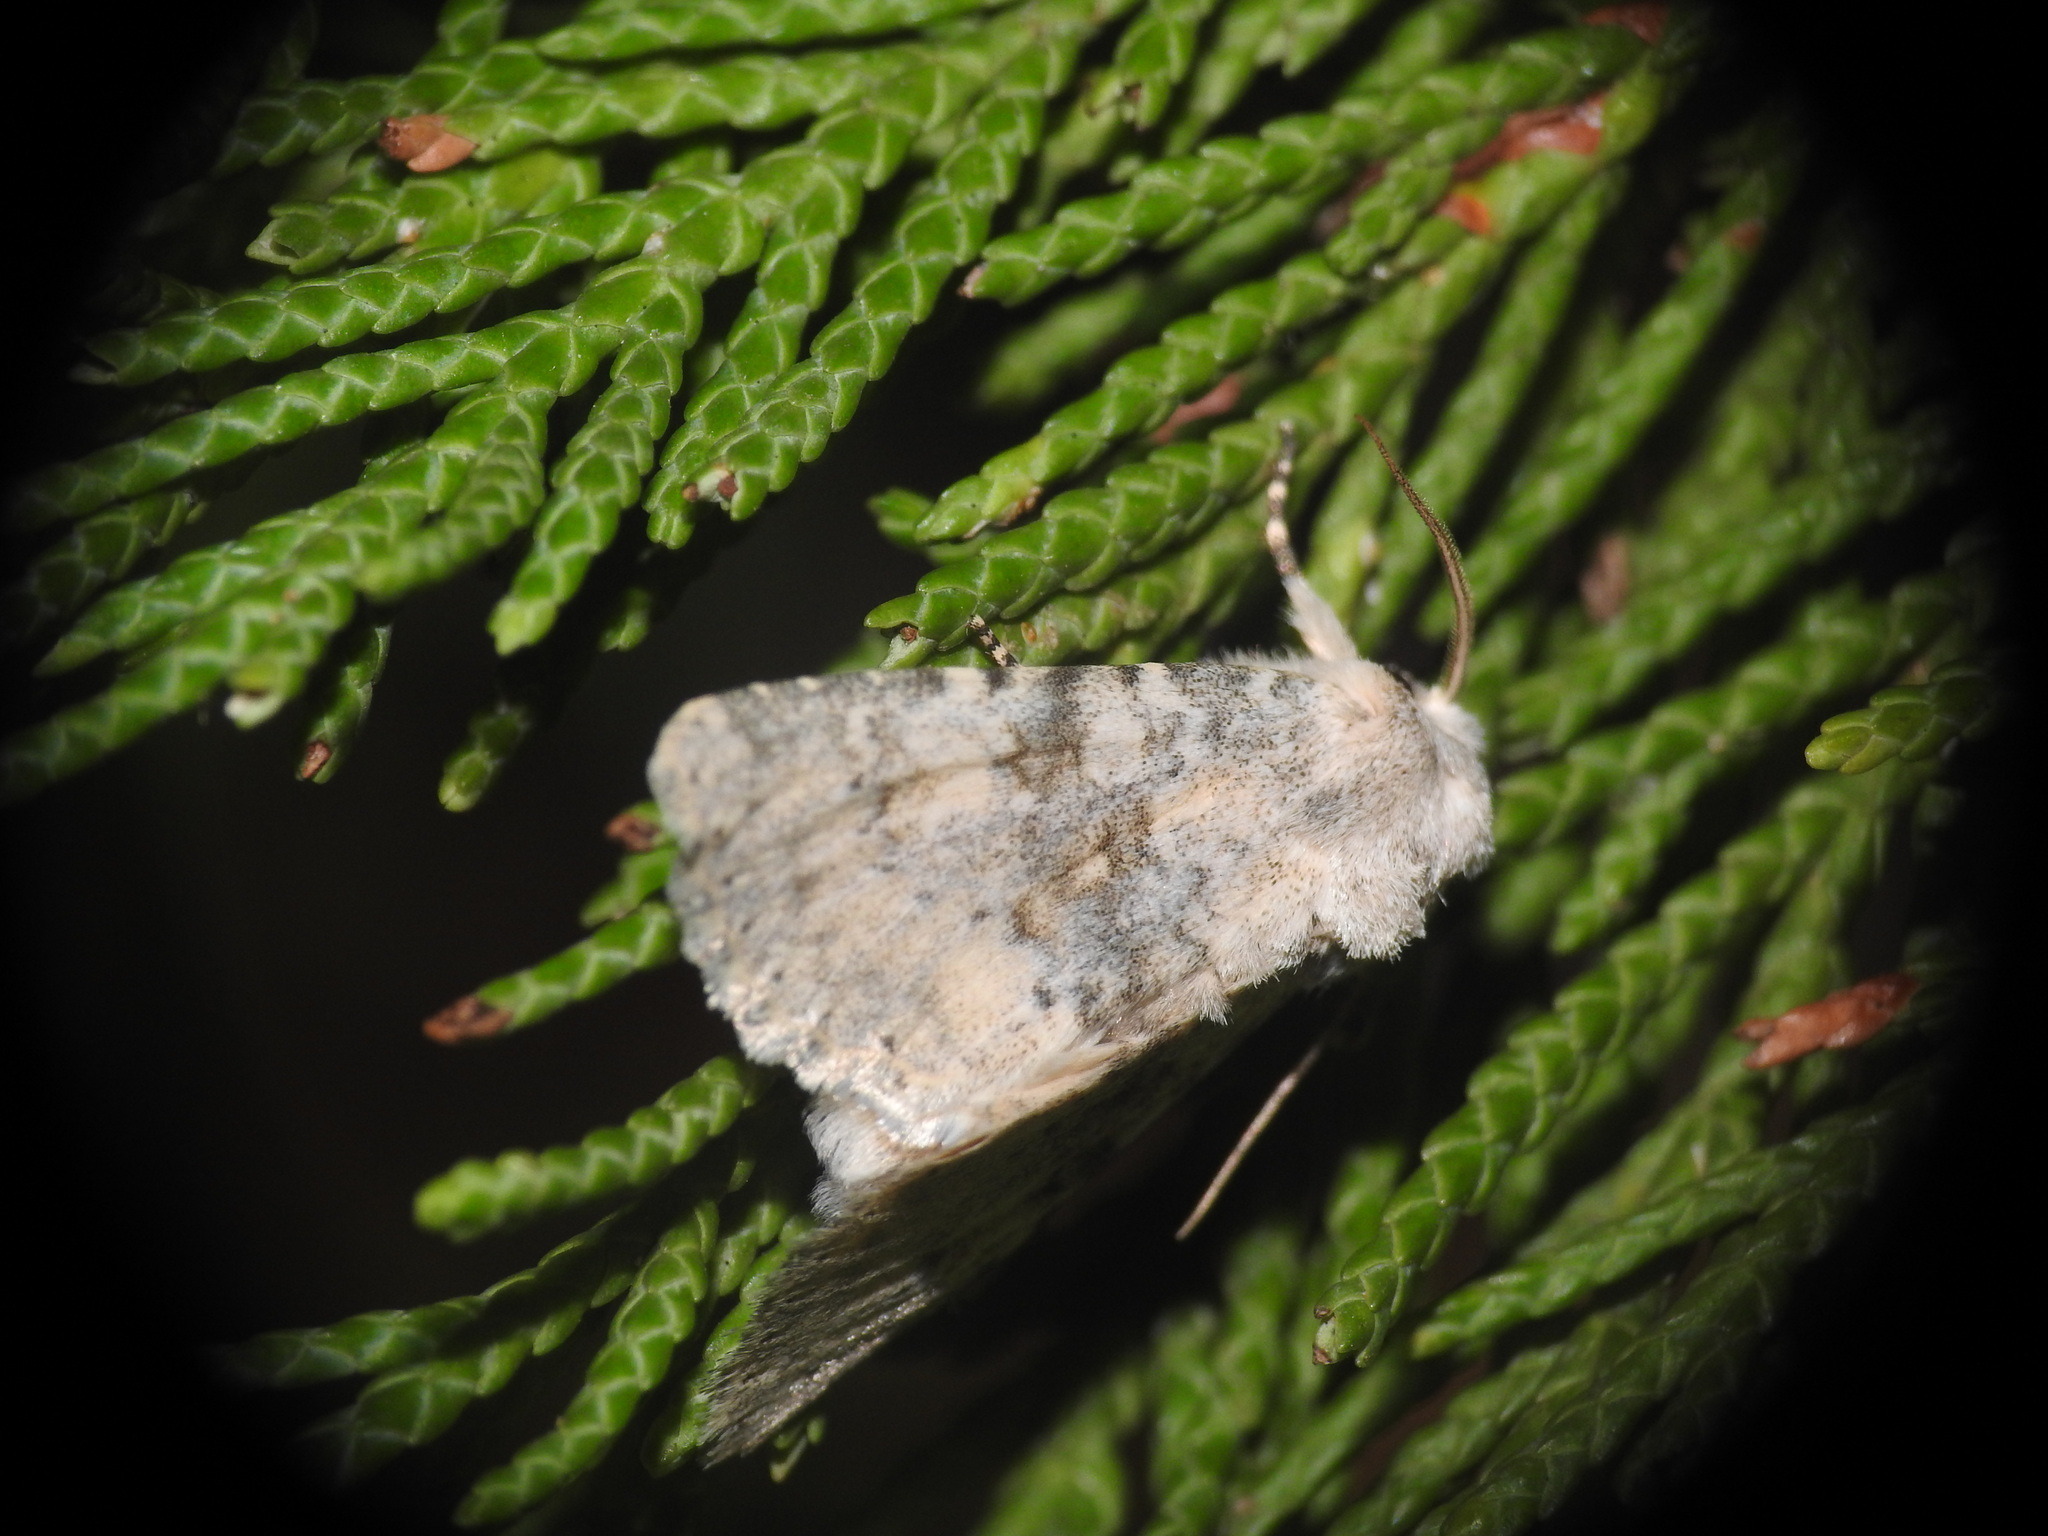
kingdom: Animalia
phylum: Arthropoda
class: Insecta
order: Lepidoptera
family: Noctuidae
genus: Polymixis
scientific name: Polymixis dubia
